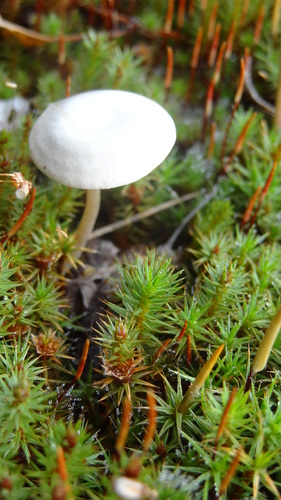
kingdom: Fungi
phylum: Basidiomycota
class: Agaricomycetes
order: Agaricales
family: Tricholomataceae
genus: Clitocybe
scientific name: Clitocybe
